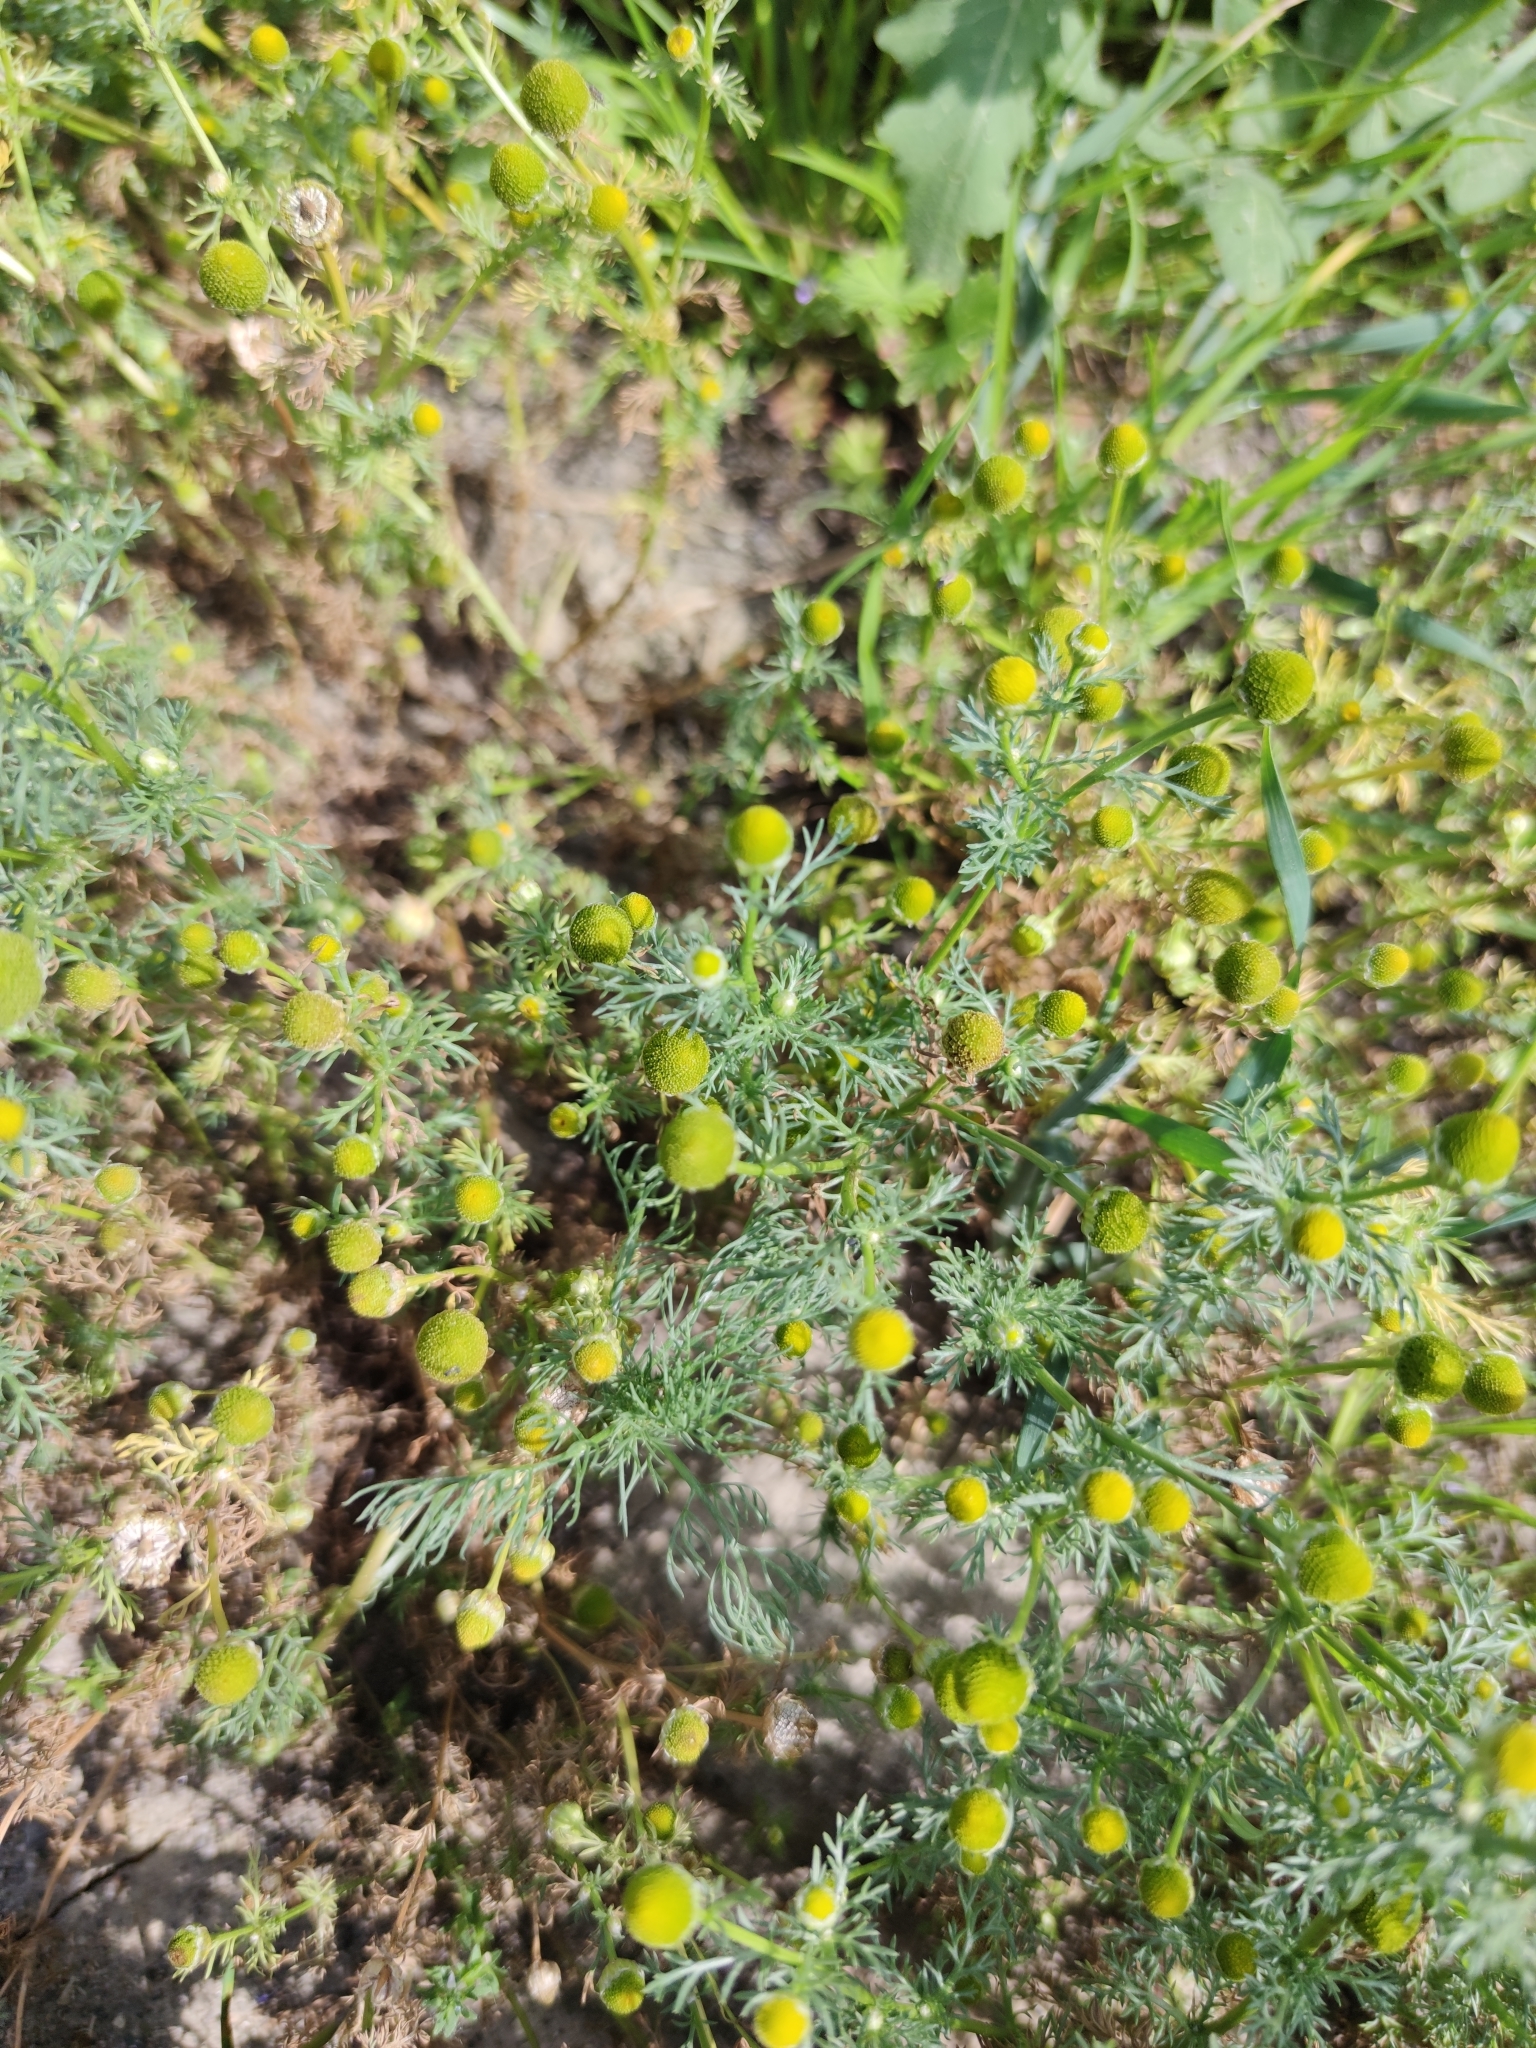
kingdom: Plantae
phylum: Tracheophyta
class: Magnoliopsida
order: Asterales
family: Asteraceae
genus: Matricaria
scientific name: Matricaria discoidea
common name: Disc mayweed
